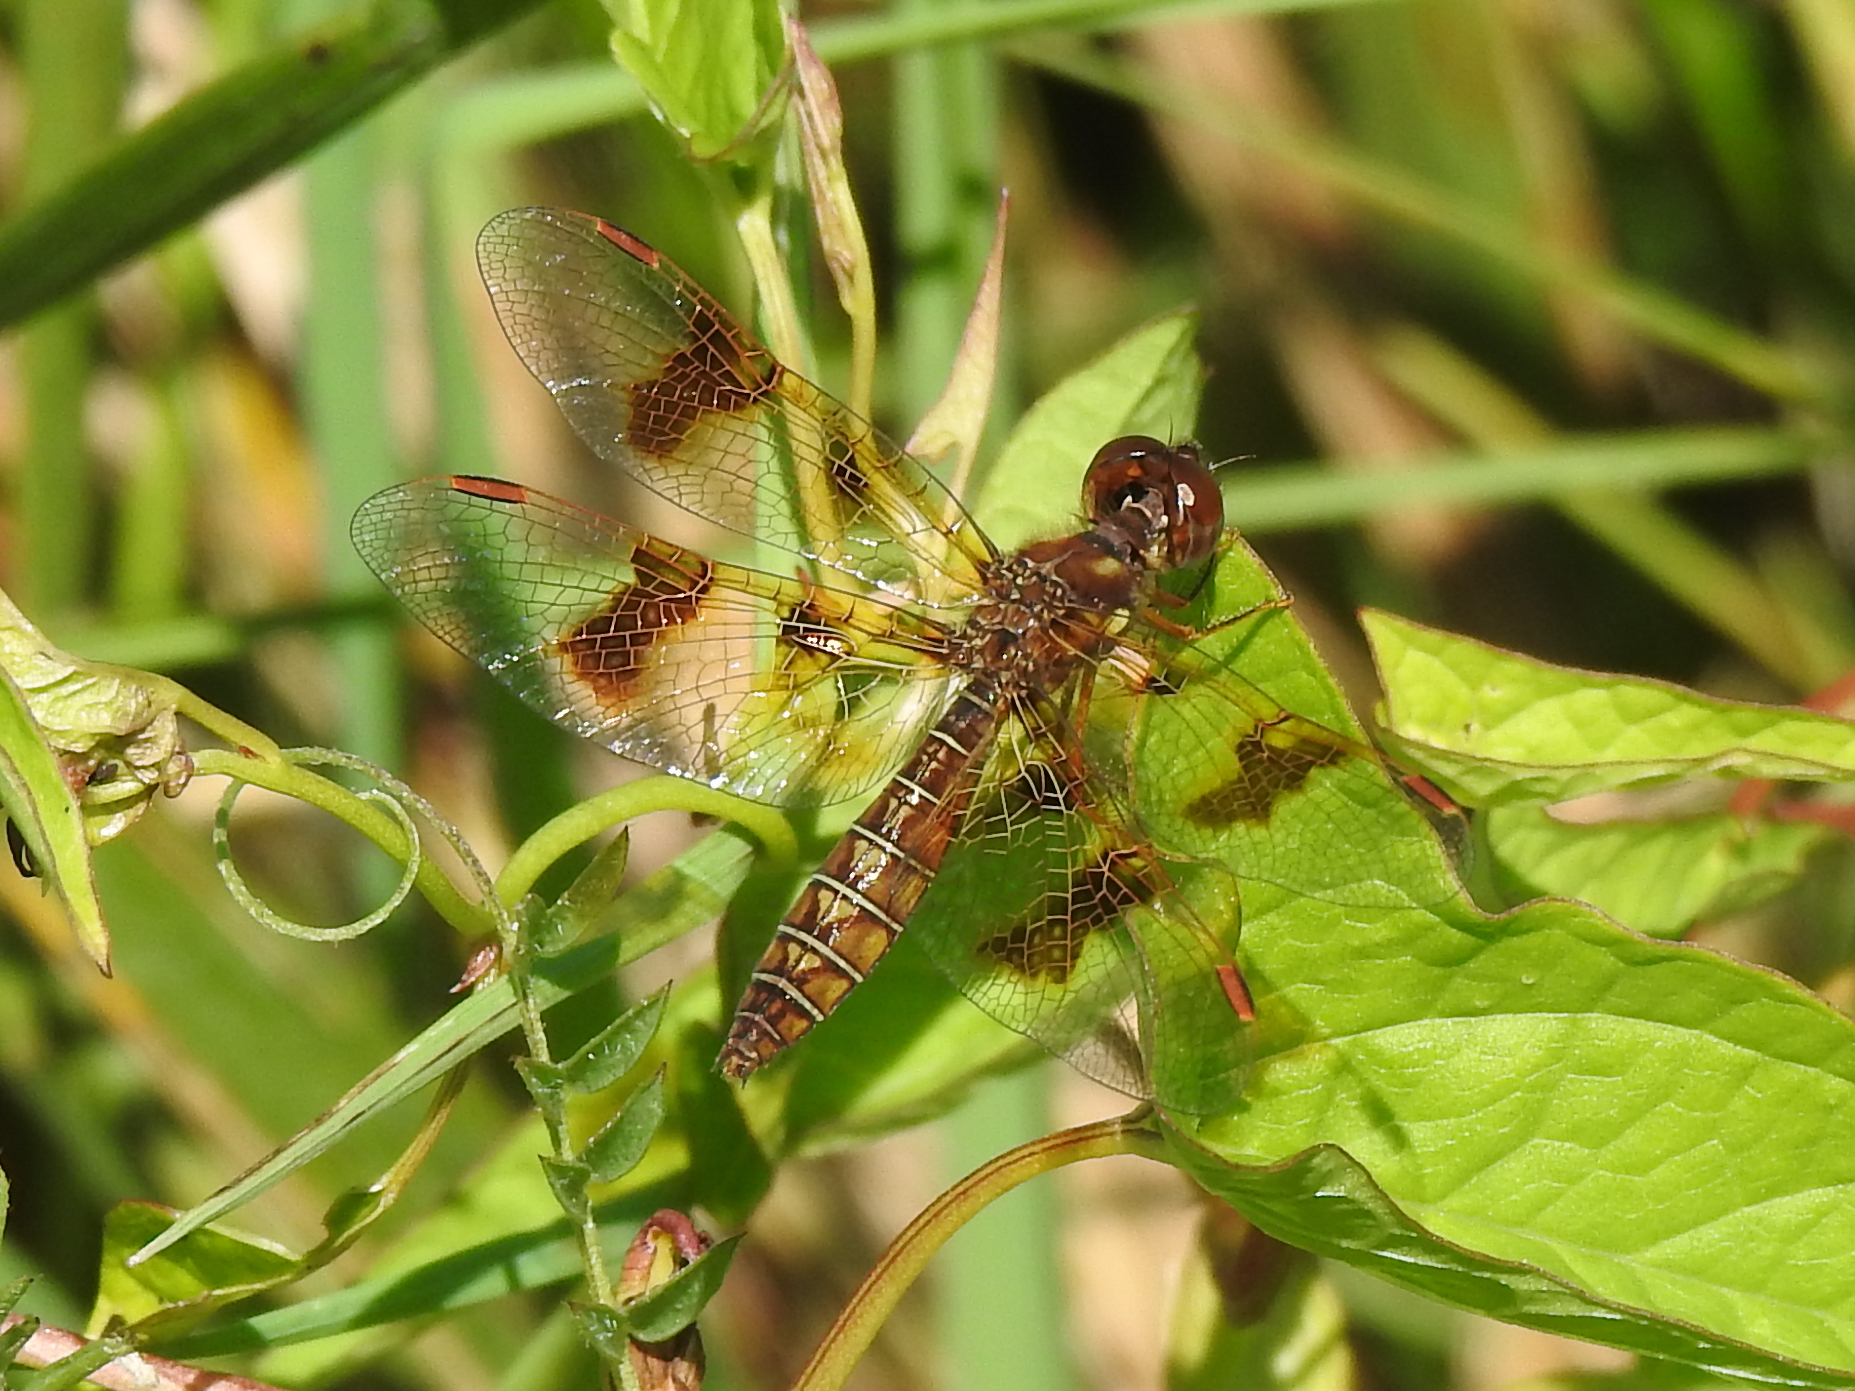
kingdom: Animalia
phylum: Arthropoda
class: Insecta
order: Odonata
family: Libellulidae
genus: Perithemis
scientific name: Perithemis tenera
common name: Eastern amberwing
